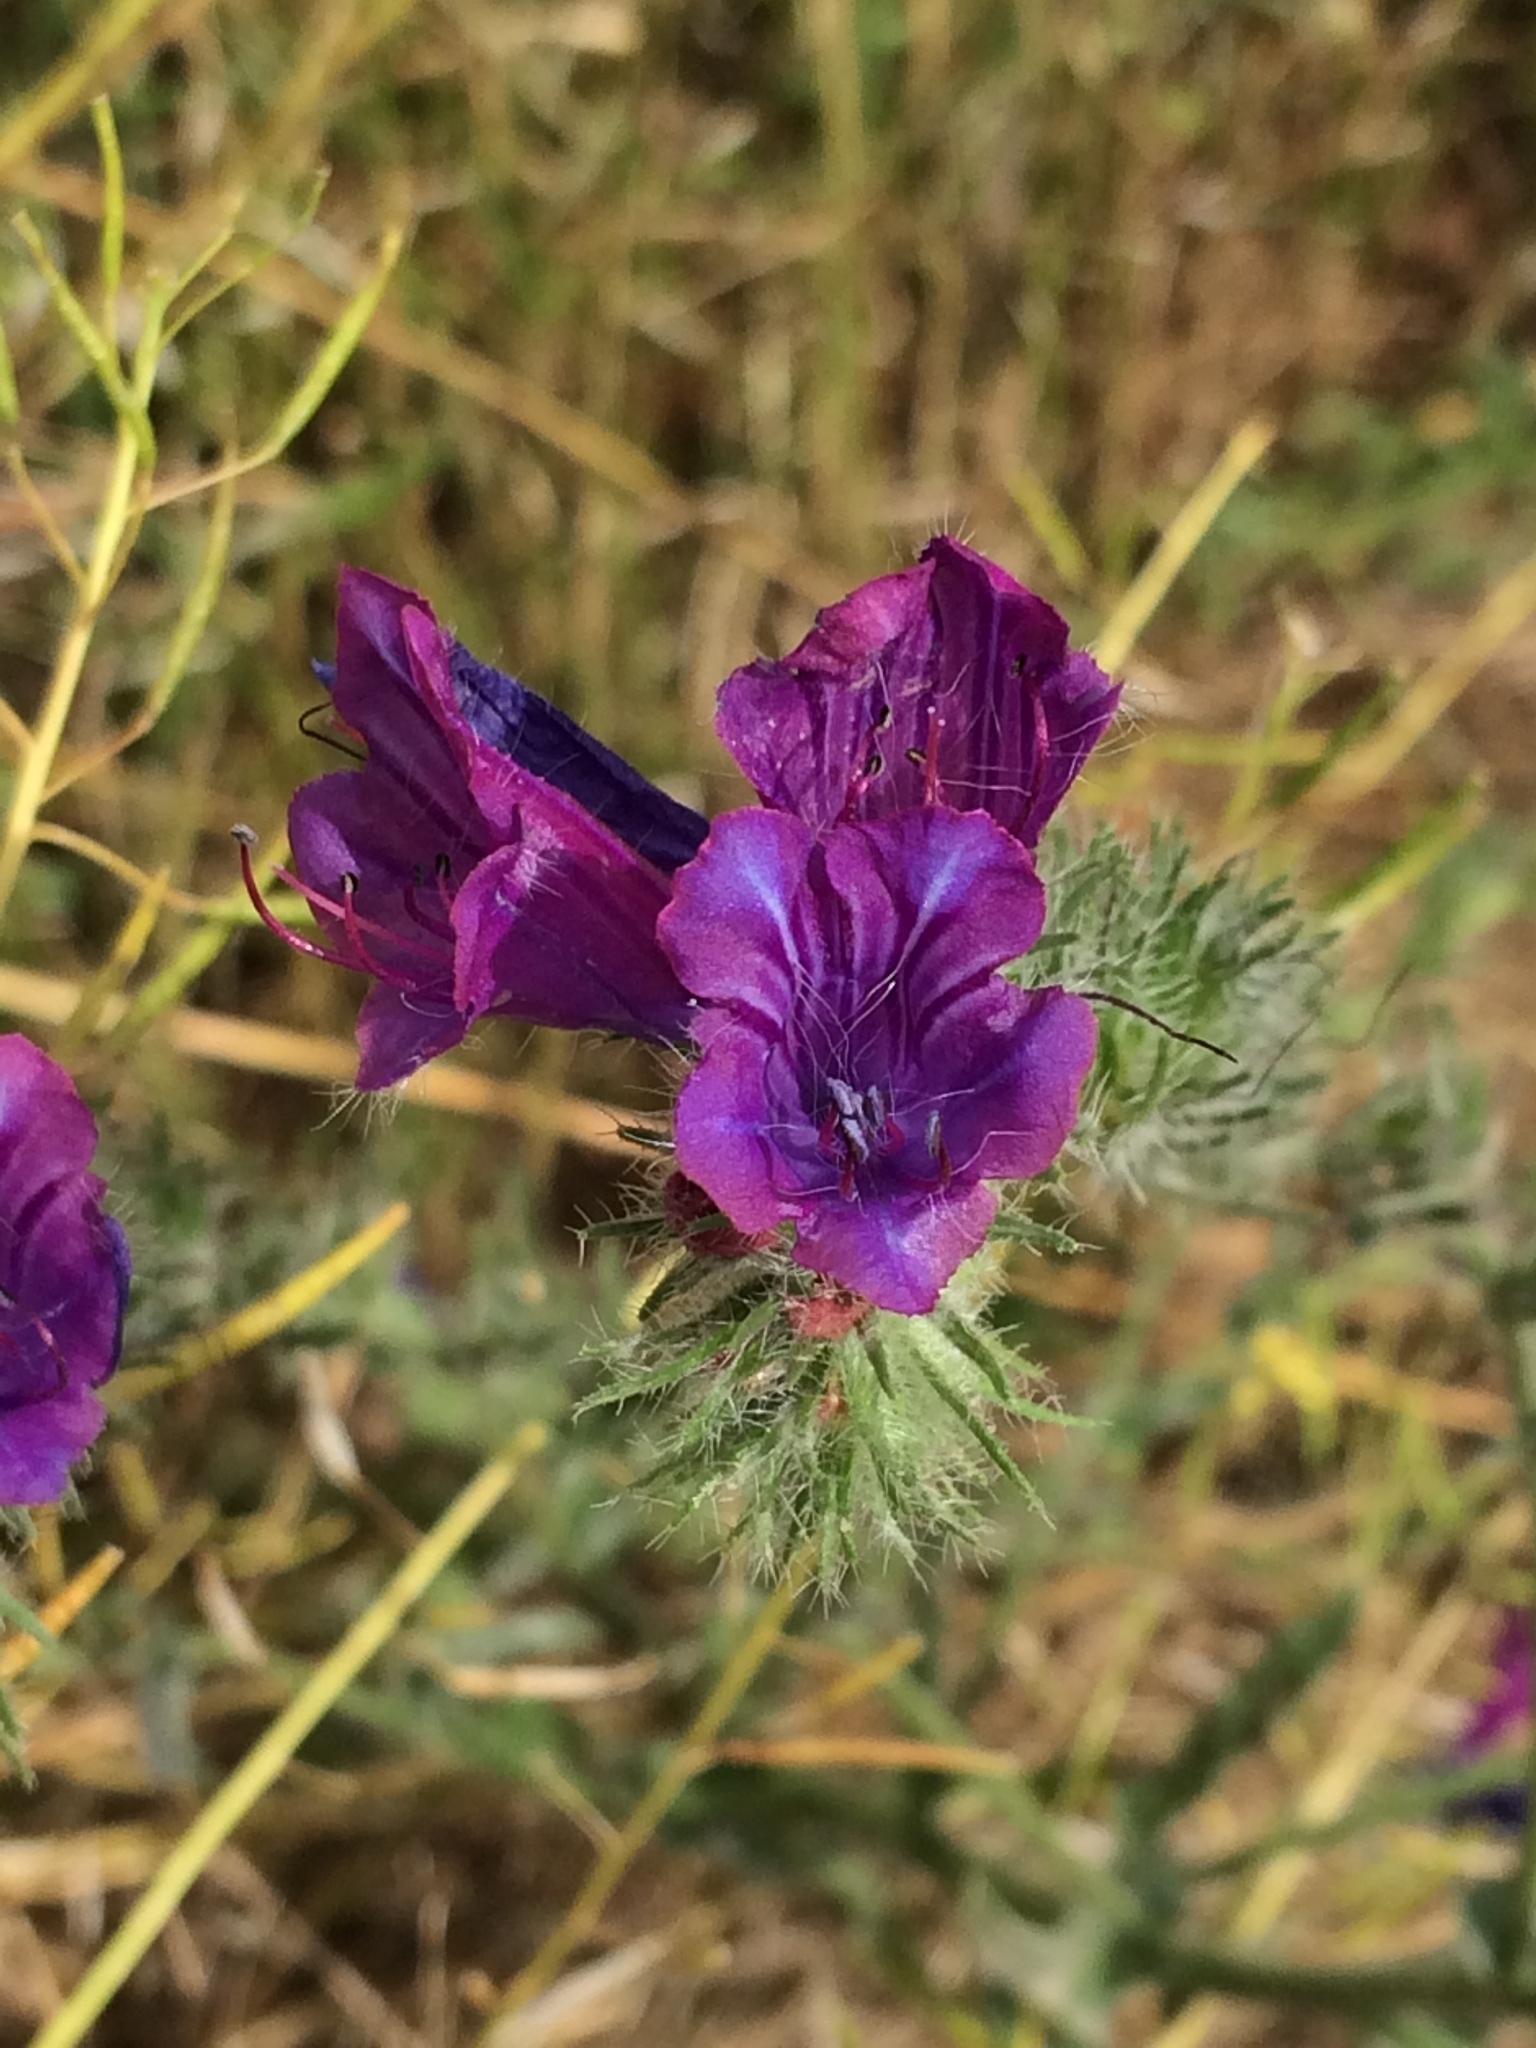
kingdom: Plantae
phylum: Tracheophyta
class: Magnoliopsida
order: Boraginales
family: Boraginaceae
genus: Echium
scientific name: Echium plantagineum
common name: Purple viper's-bugloss
